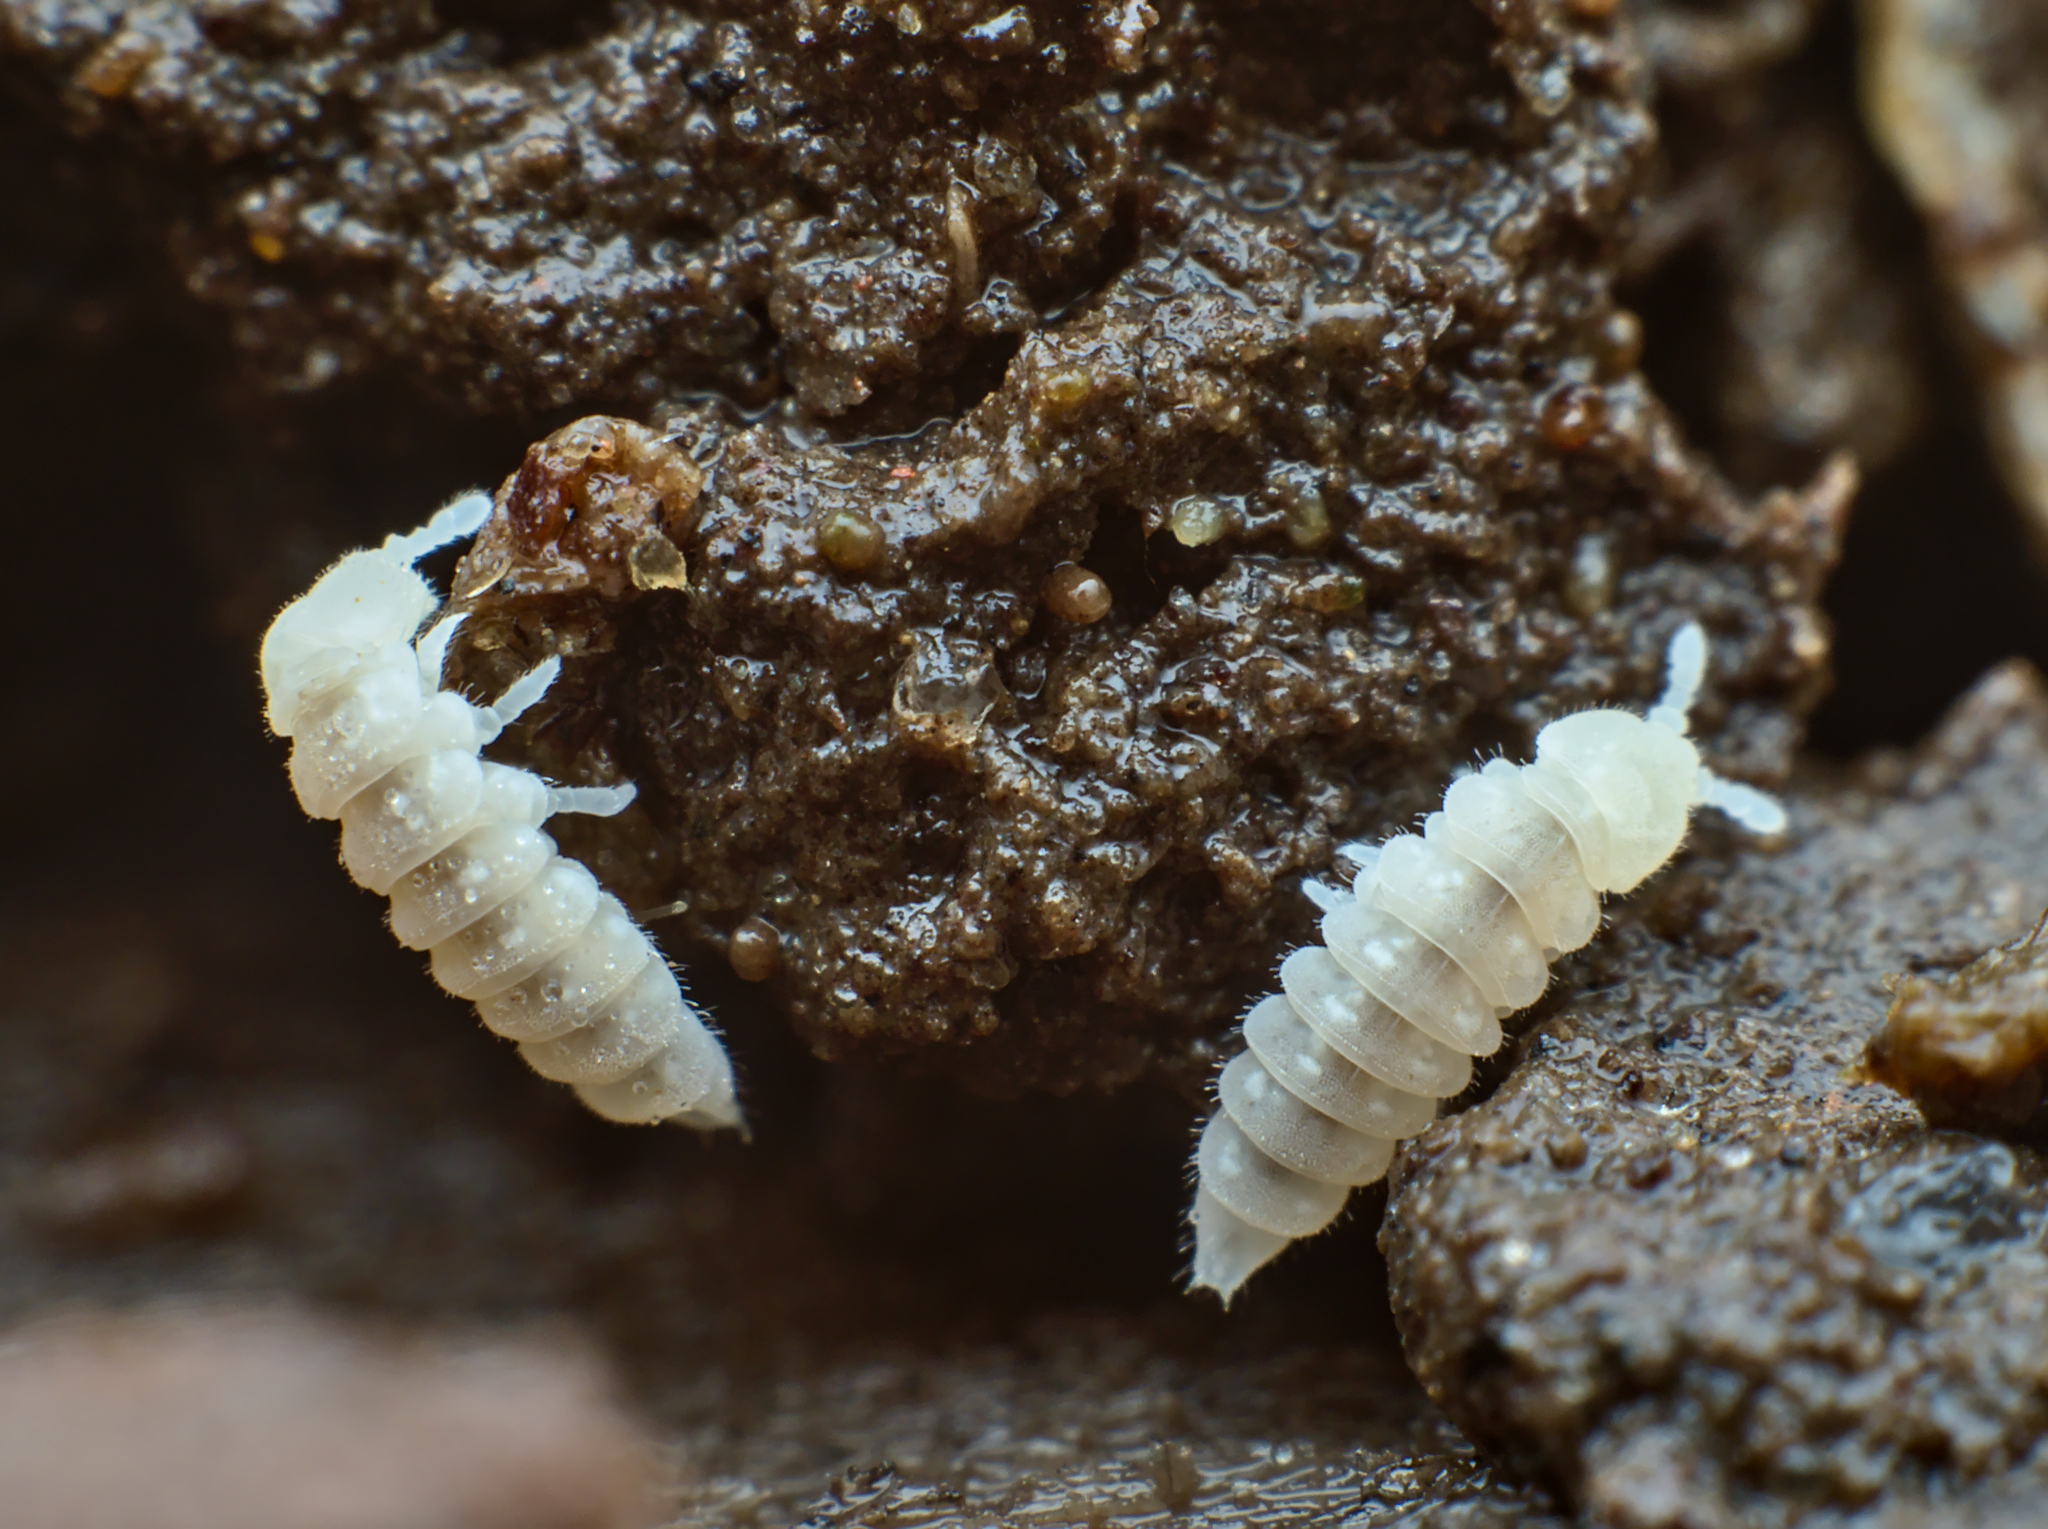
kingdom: Animalia
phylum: Arthropoda
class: Collembola
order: Poduromorpha
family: Onychiuridae
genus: Kalaphorura
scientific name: Kalaphorura burmeisteri
